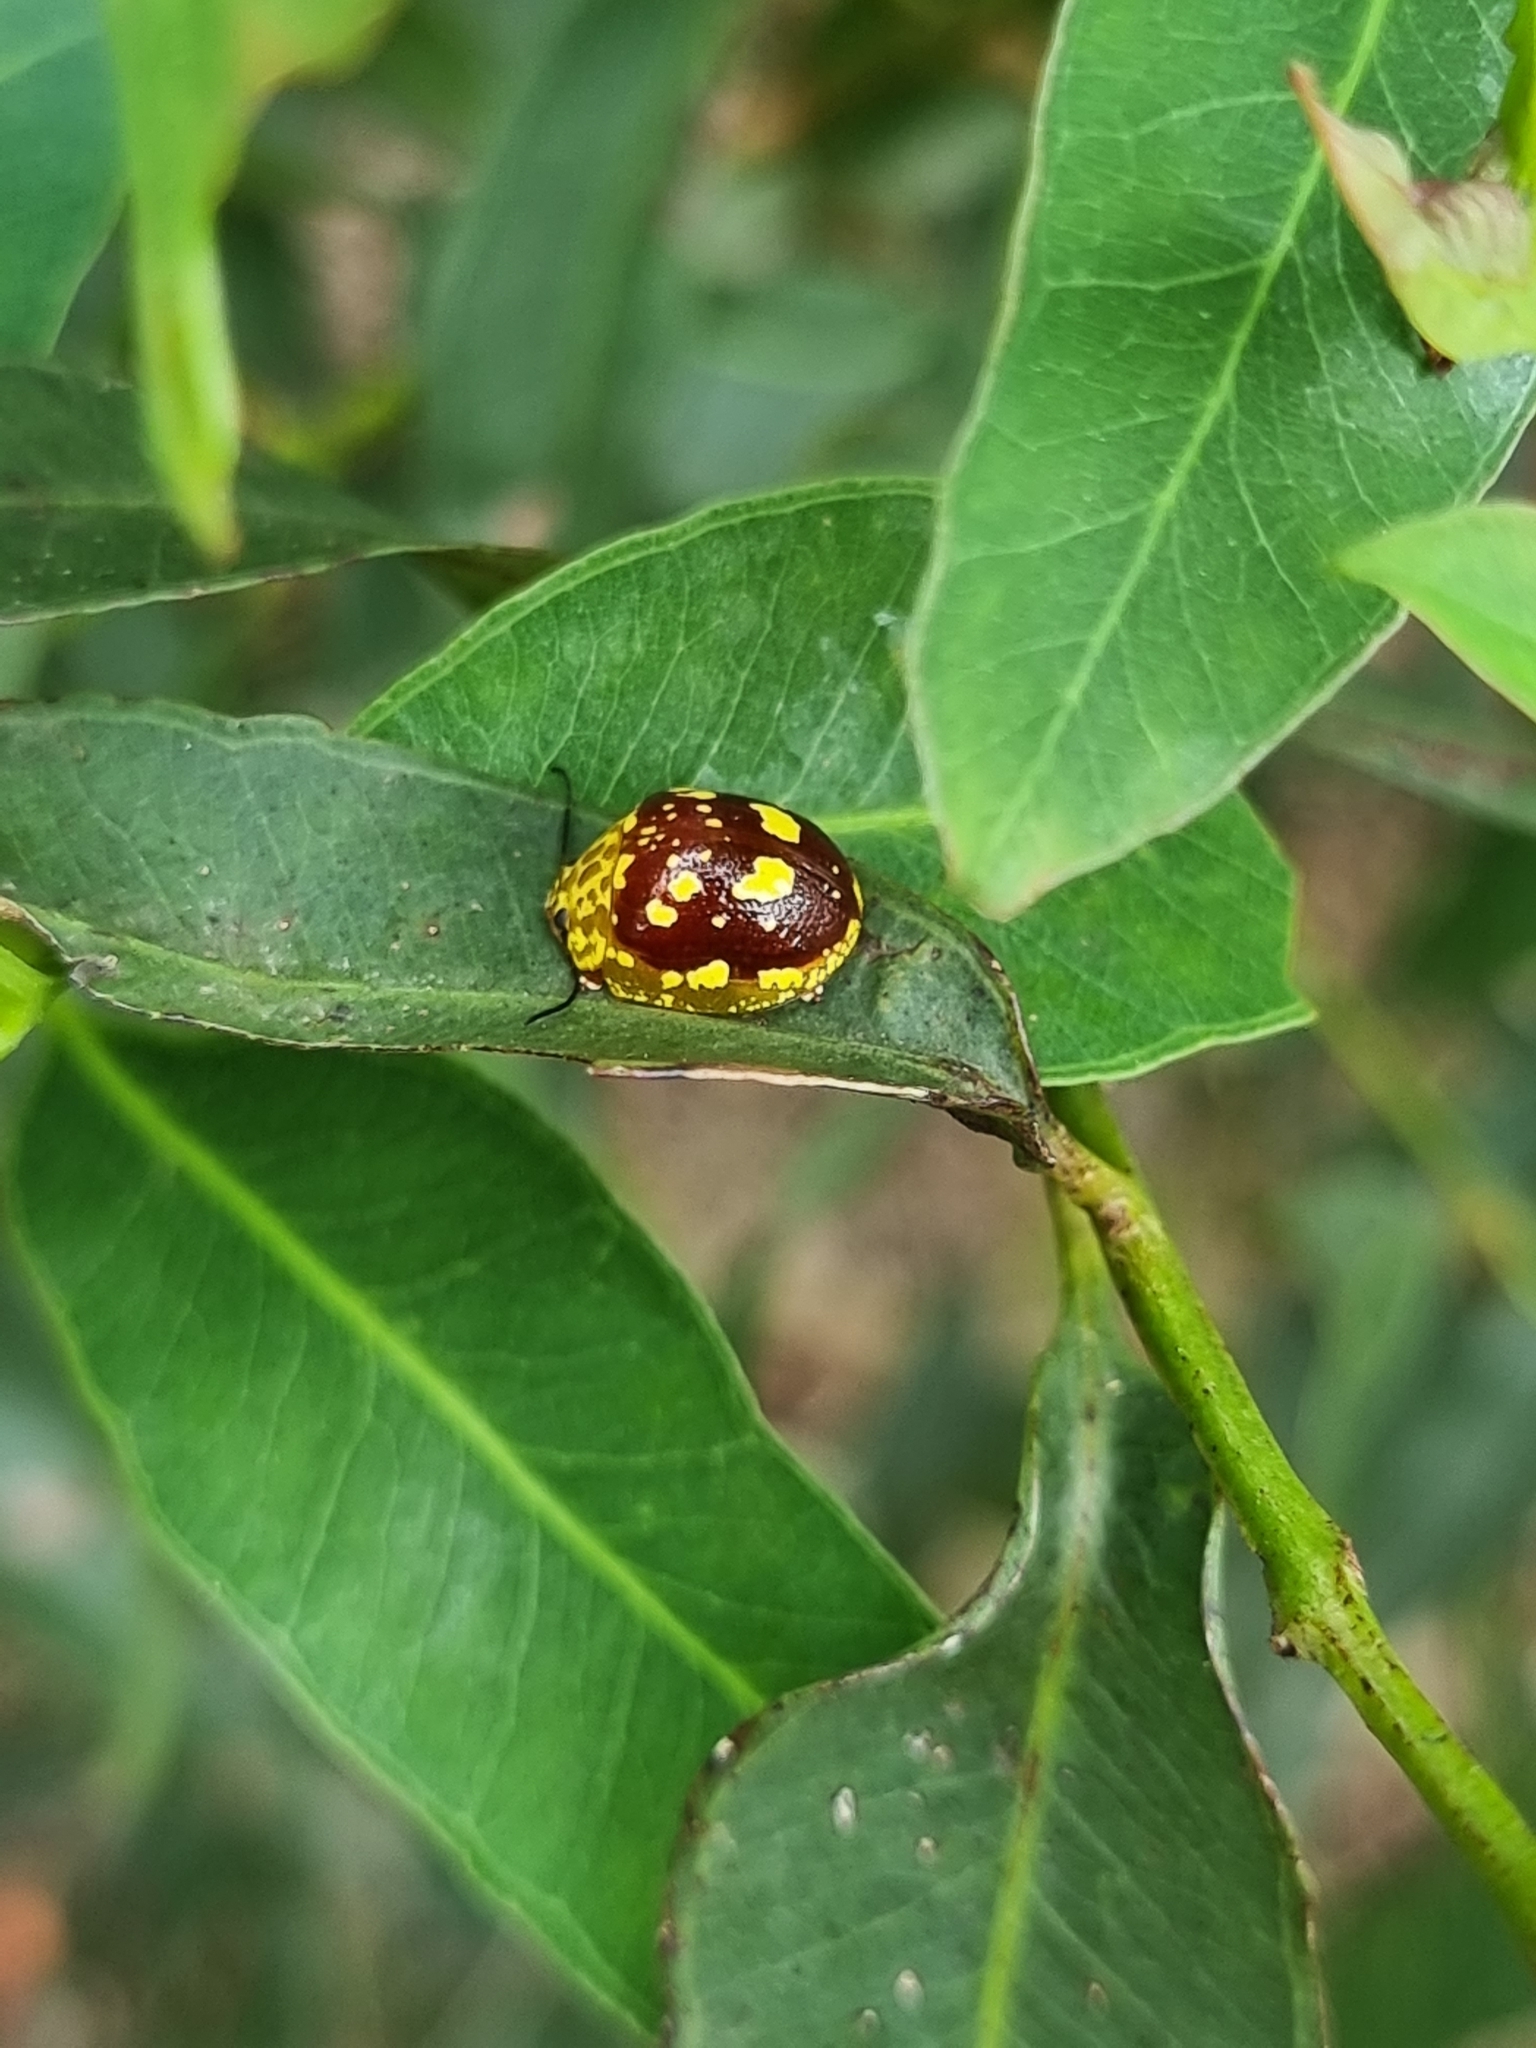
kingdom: Animalia
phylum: Arthropoda
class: Insecta
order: Coleoptera
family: Chrysomelidae
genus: Paropsis
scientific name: Paropsis maculata
